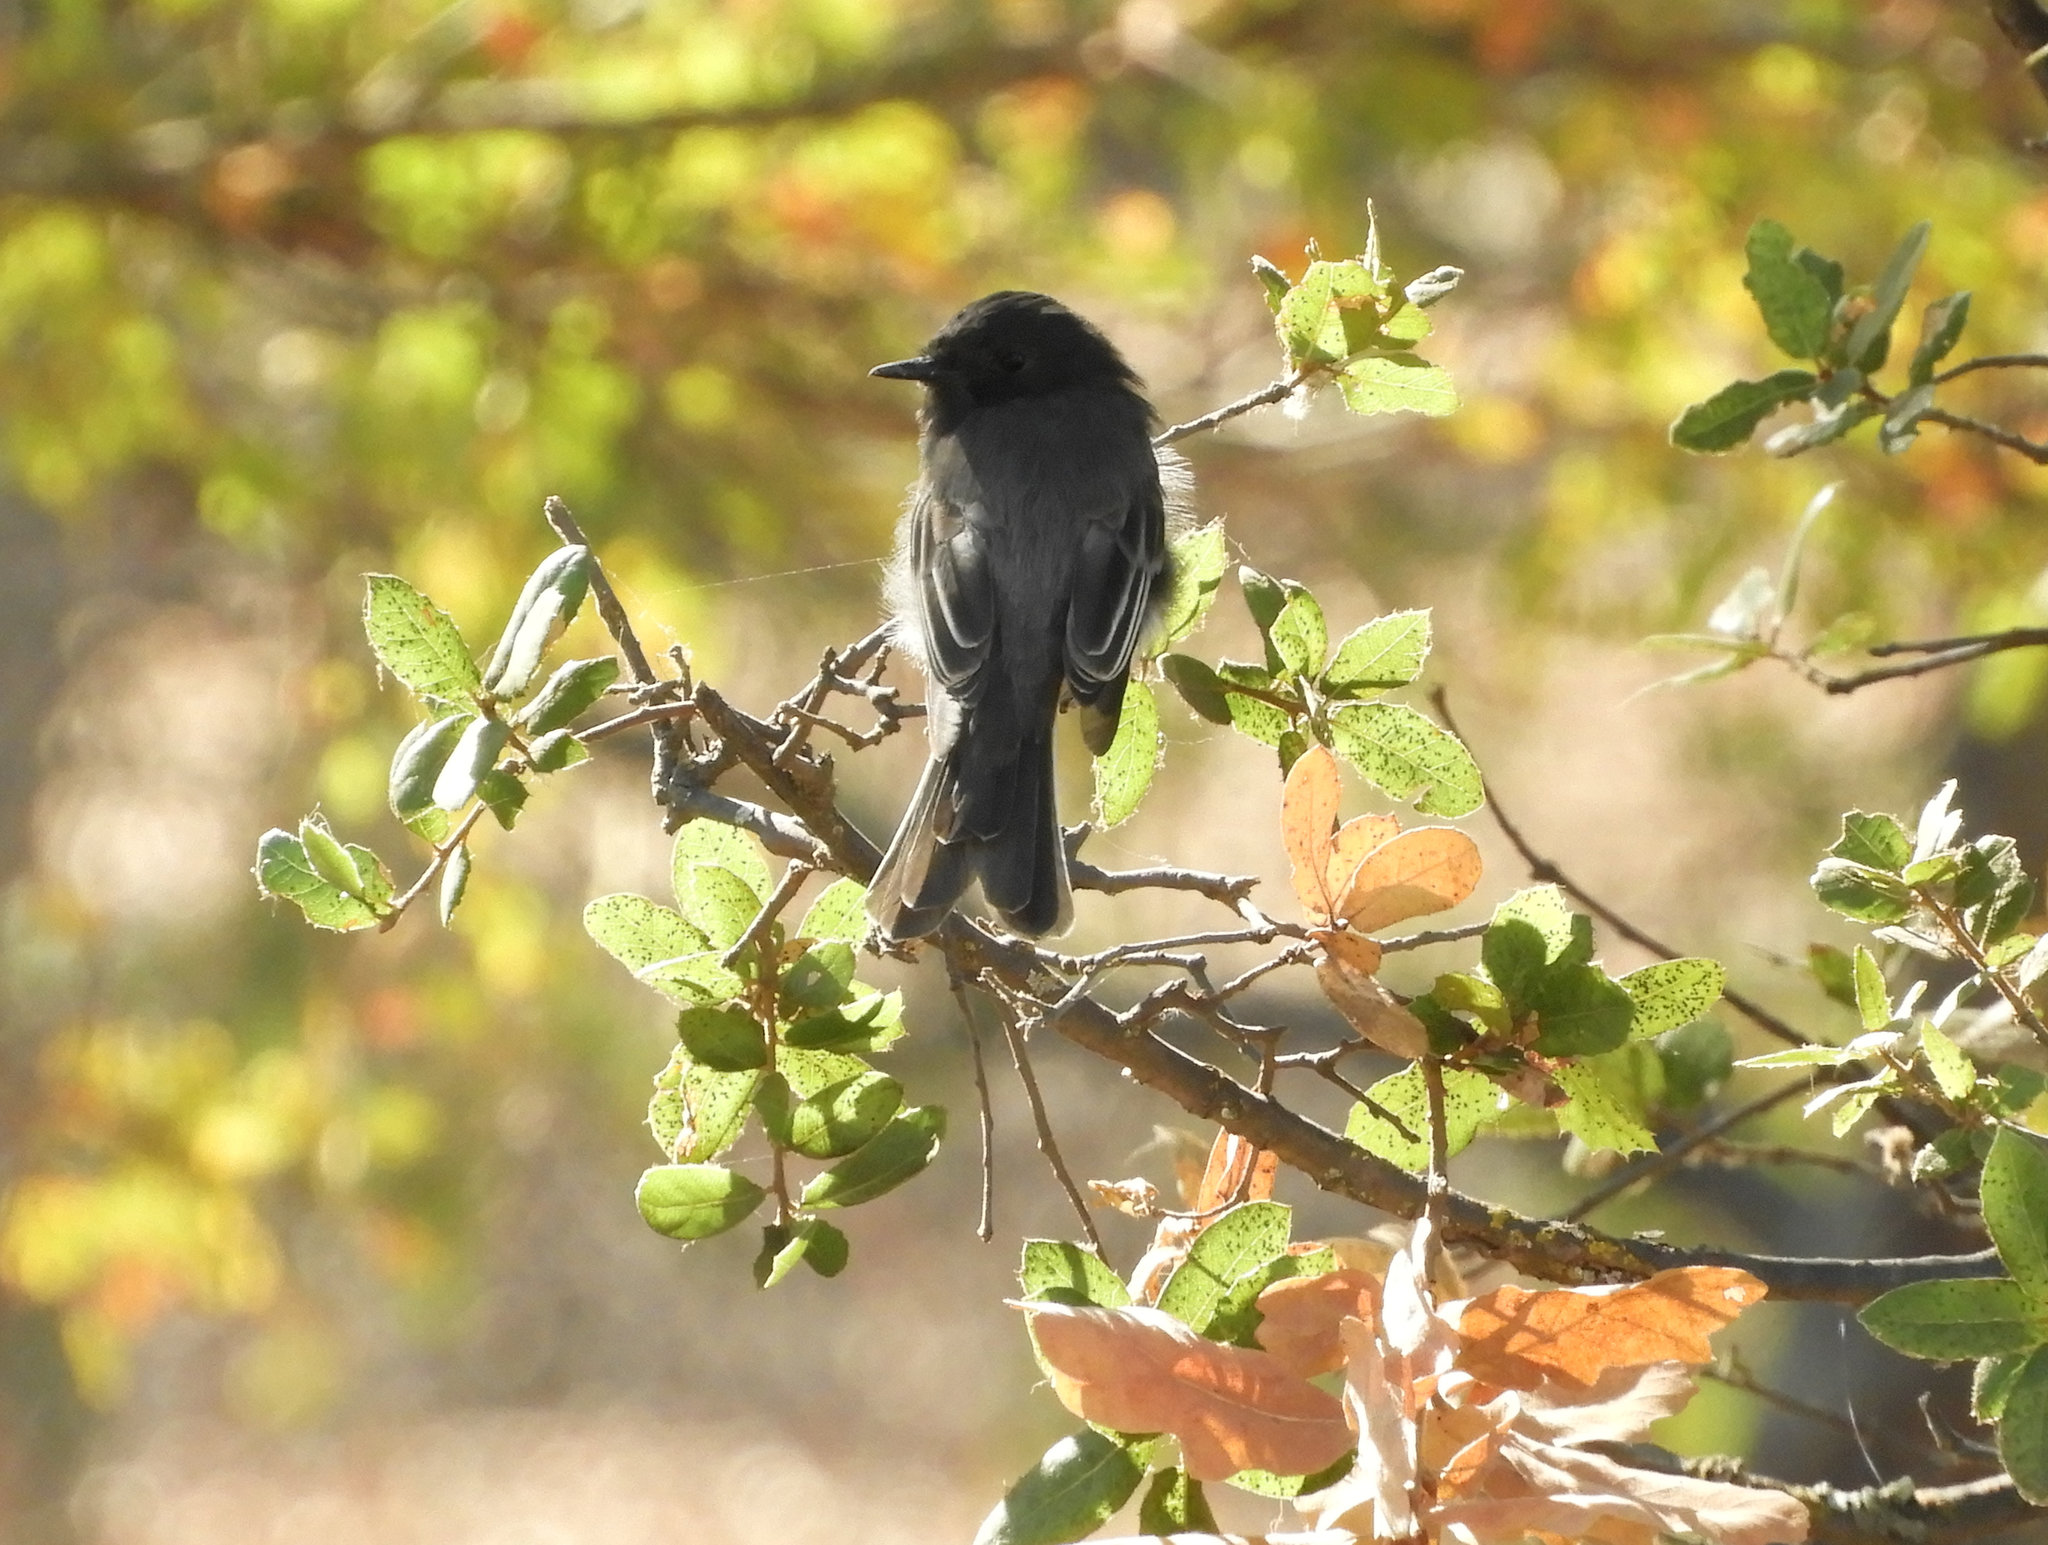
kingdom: Animalia
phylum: Chordata
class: Aves
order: Passeriformes
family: Tyrannidae
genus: Sayornis
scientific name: Sayornis nigricans
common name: Black phoebe
